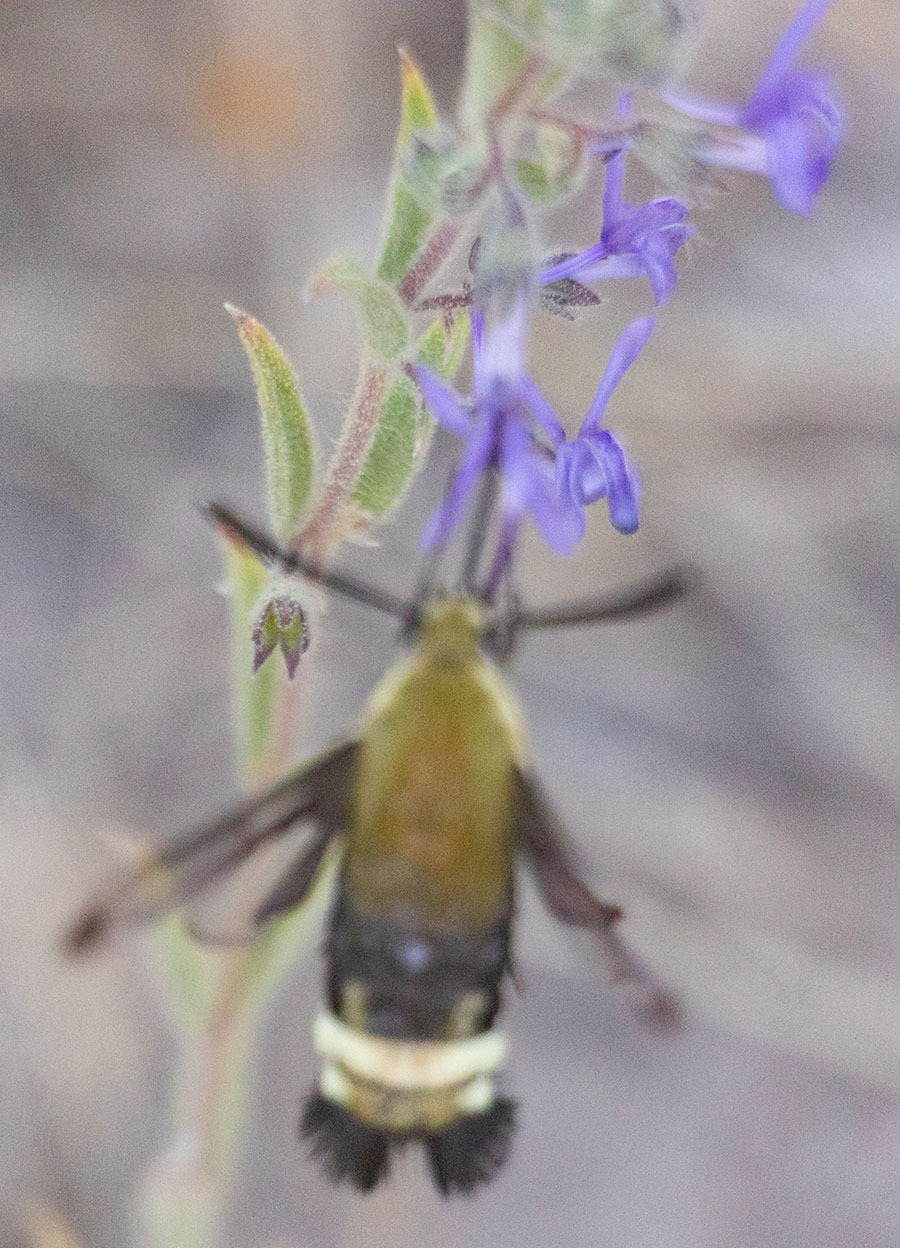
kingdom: Animalia
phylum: Arthropoda
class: Insecta
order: Lepidoptera
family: Sphingidae
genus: Hemaris
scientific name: Hemaris thetis
